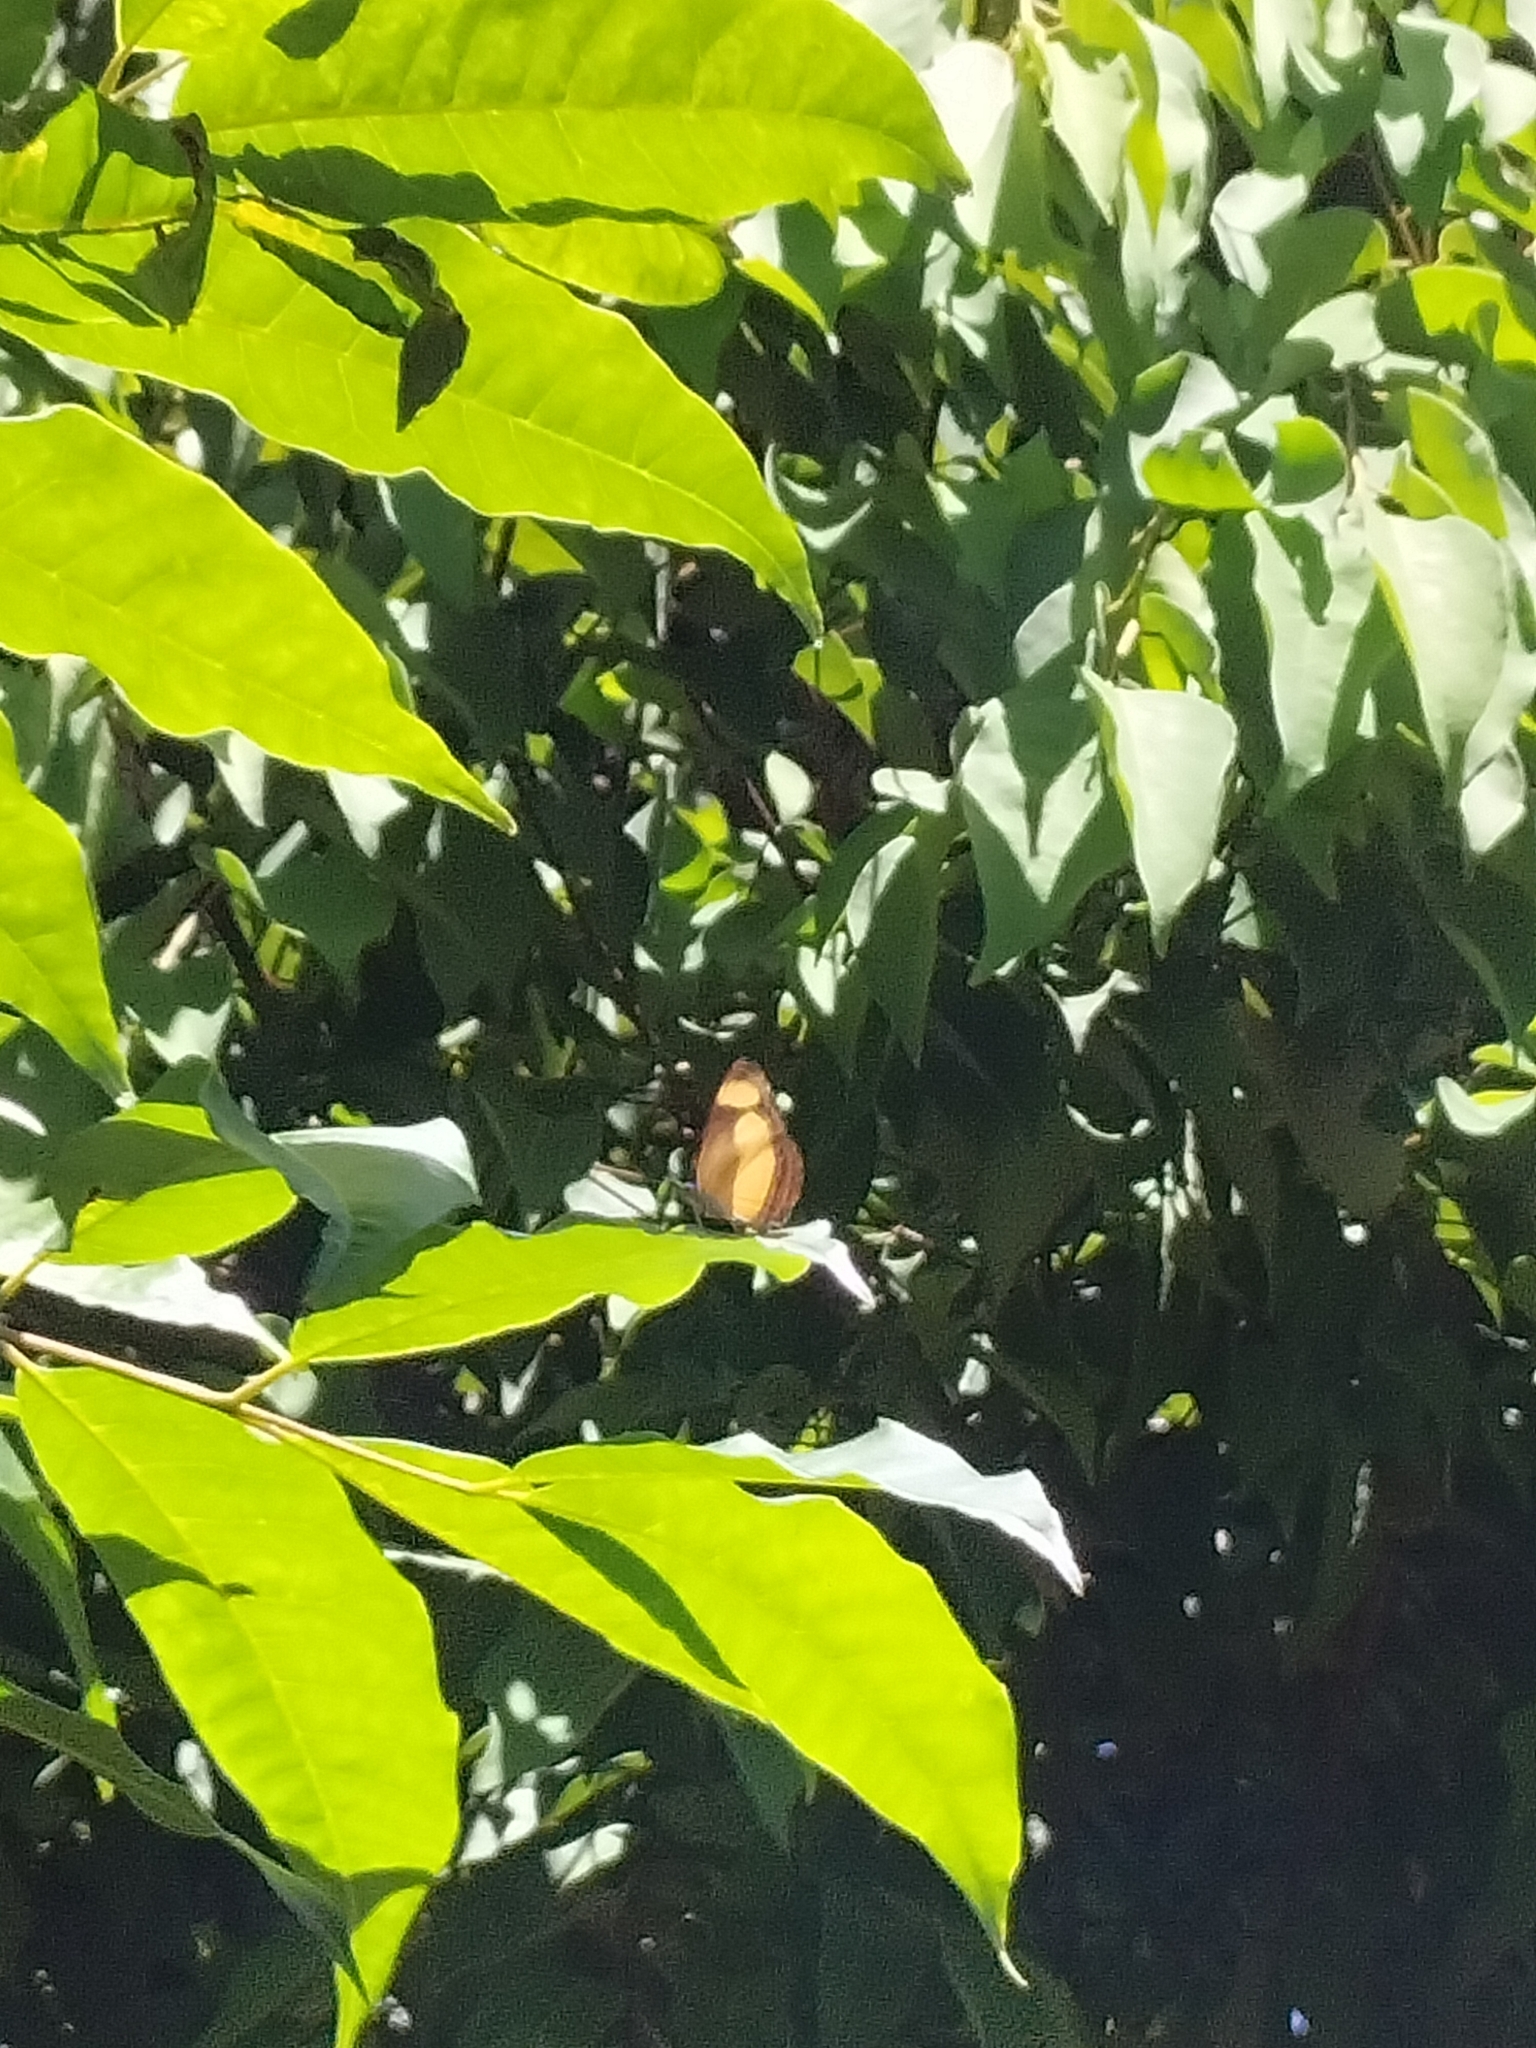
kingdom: Animalia
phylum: Arthropoda
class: Insecta
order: Lepidoptera
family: Nymphalidae
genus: Pantoporia
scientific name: Pantoporia consimilis
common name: Orange plane
